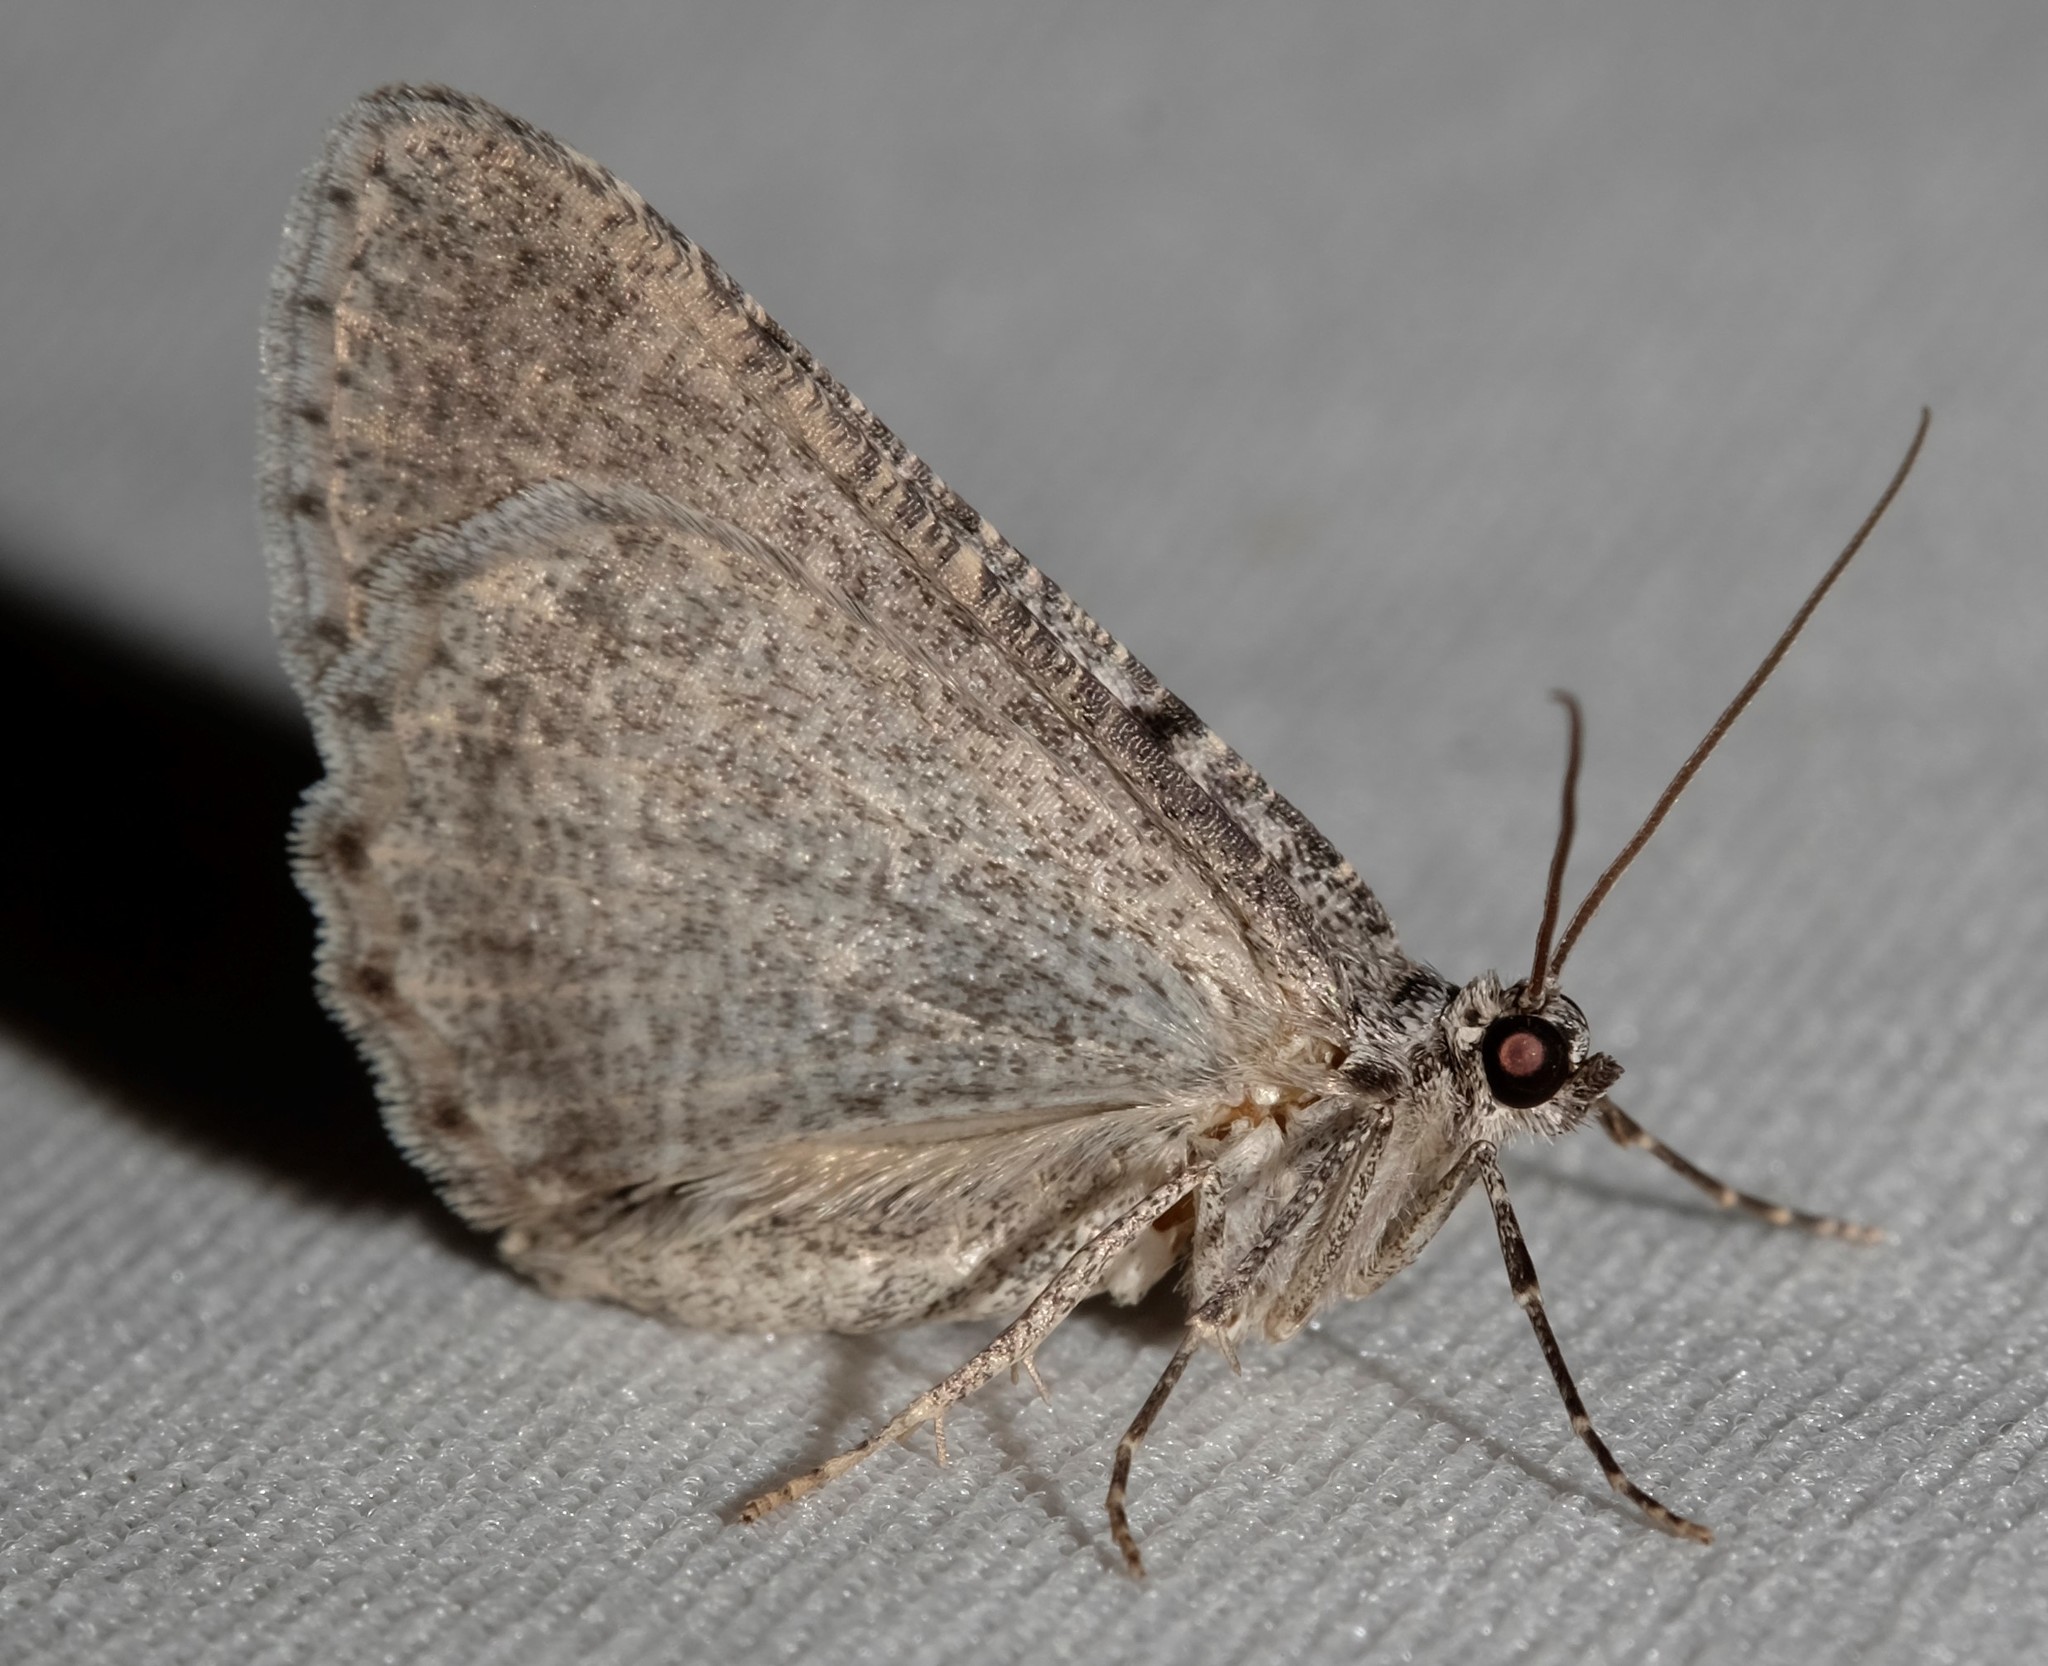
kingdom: Animalia
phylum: Arthropoda
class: Insecta
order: Lepidoptera
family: Geometridae
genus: Psilosticha
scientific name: Psilosticha absorpta
